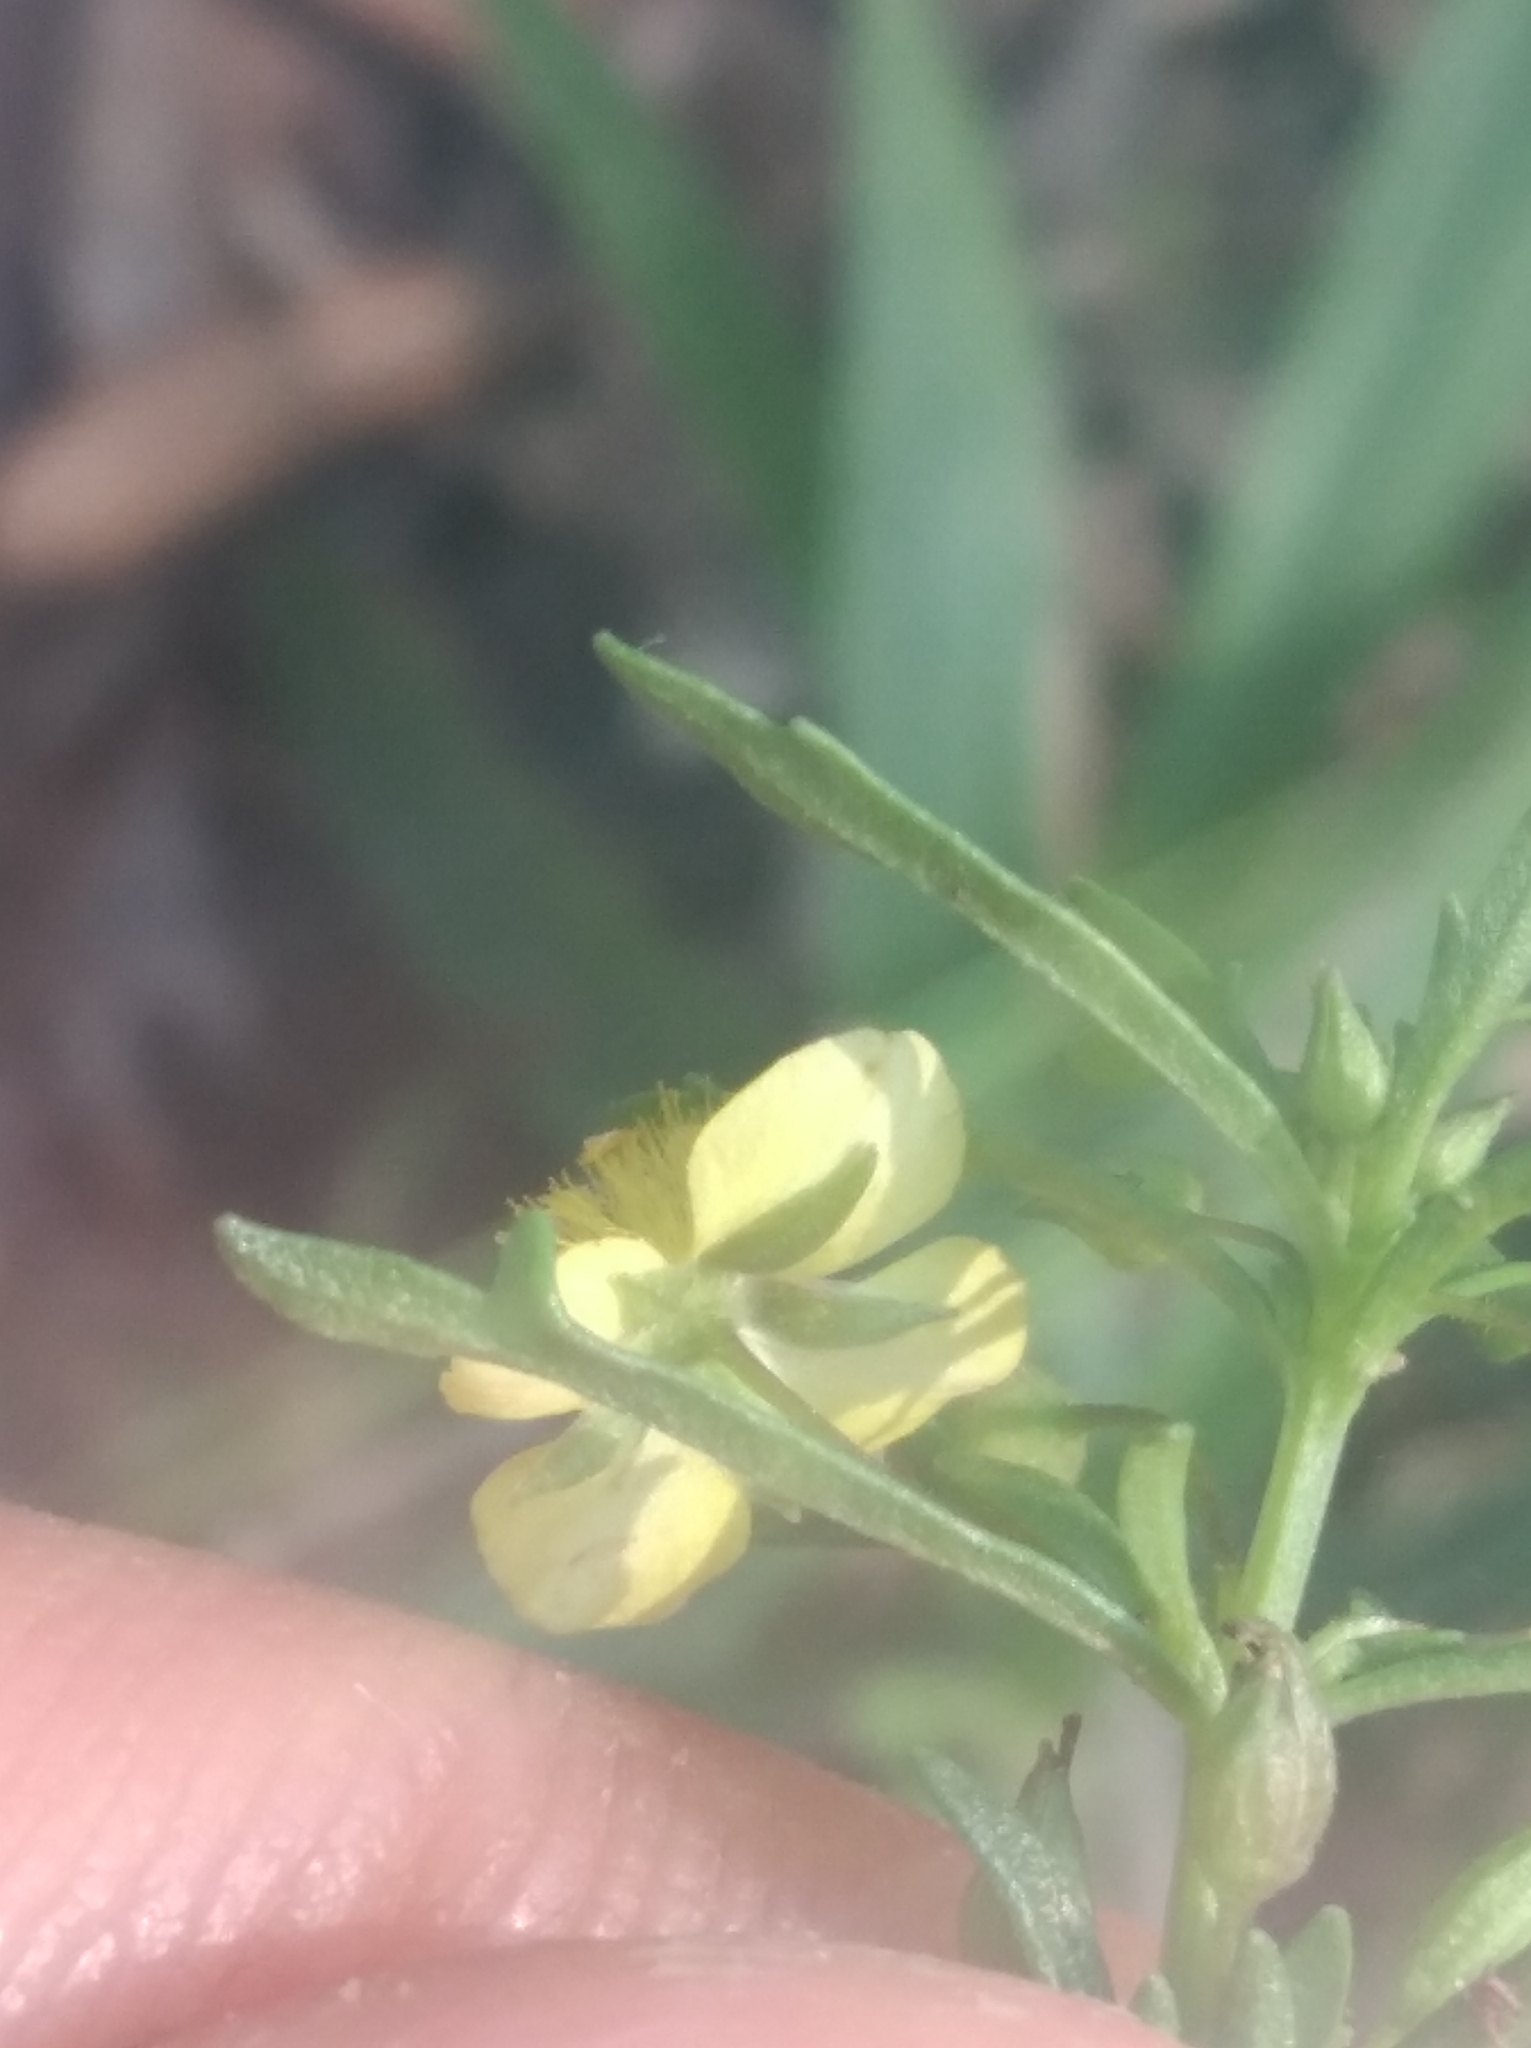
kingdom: Plantae
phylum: Tracheophyta
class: Magnoliopsida
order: Lamiales
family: Plantaginaceae
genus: Scoparia
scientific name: Scoparia montevidensis
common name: Broomwort
